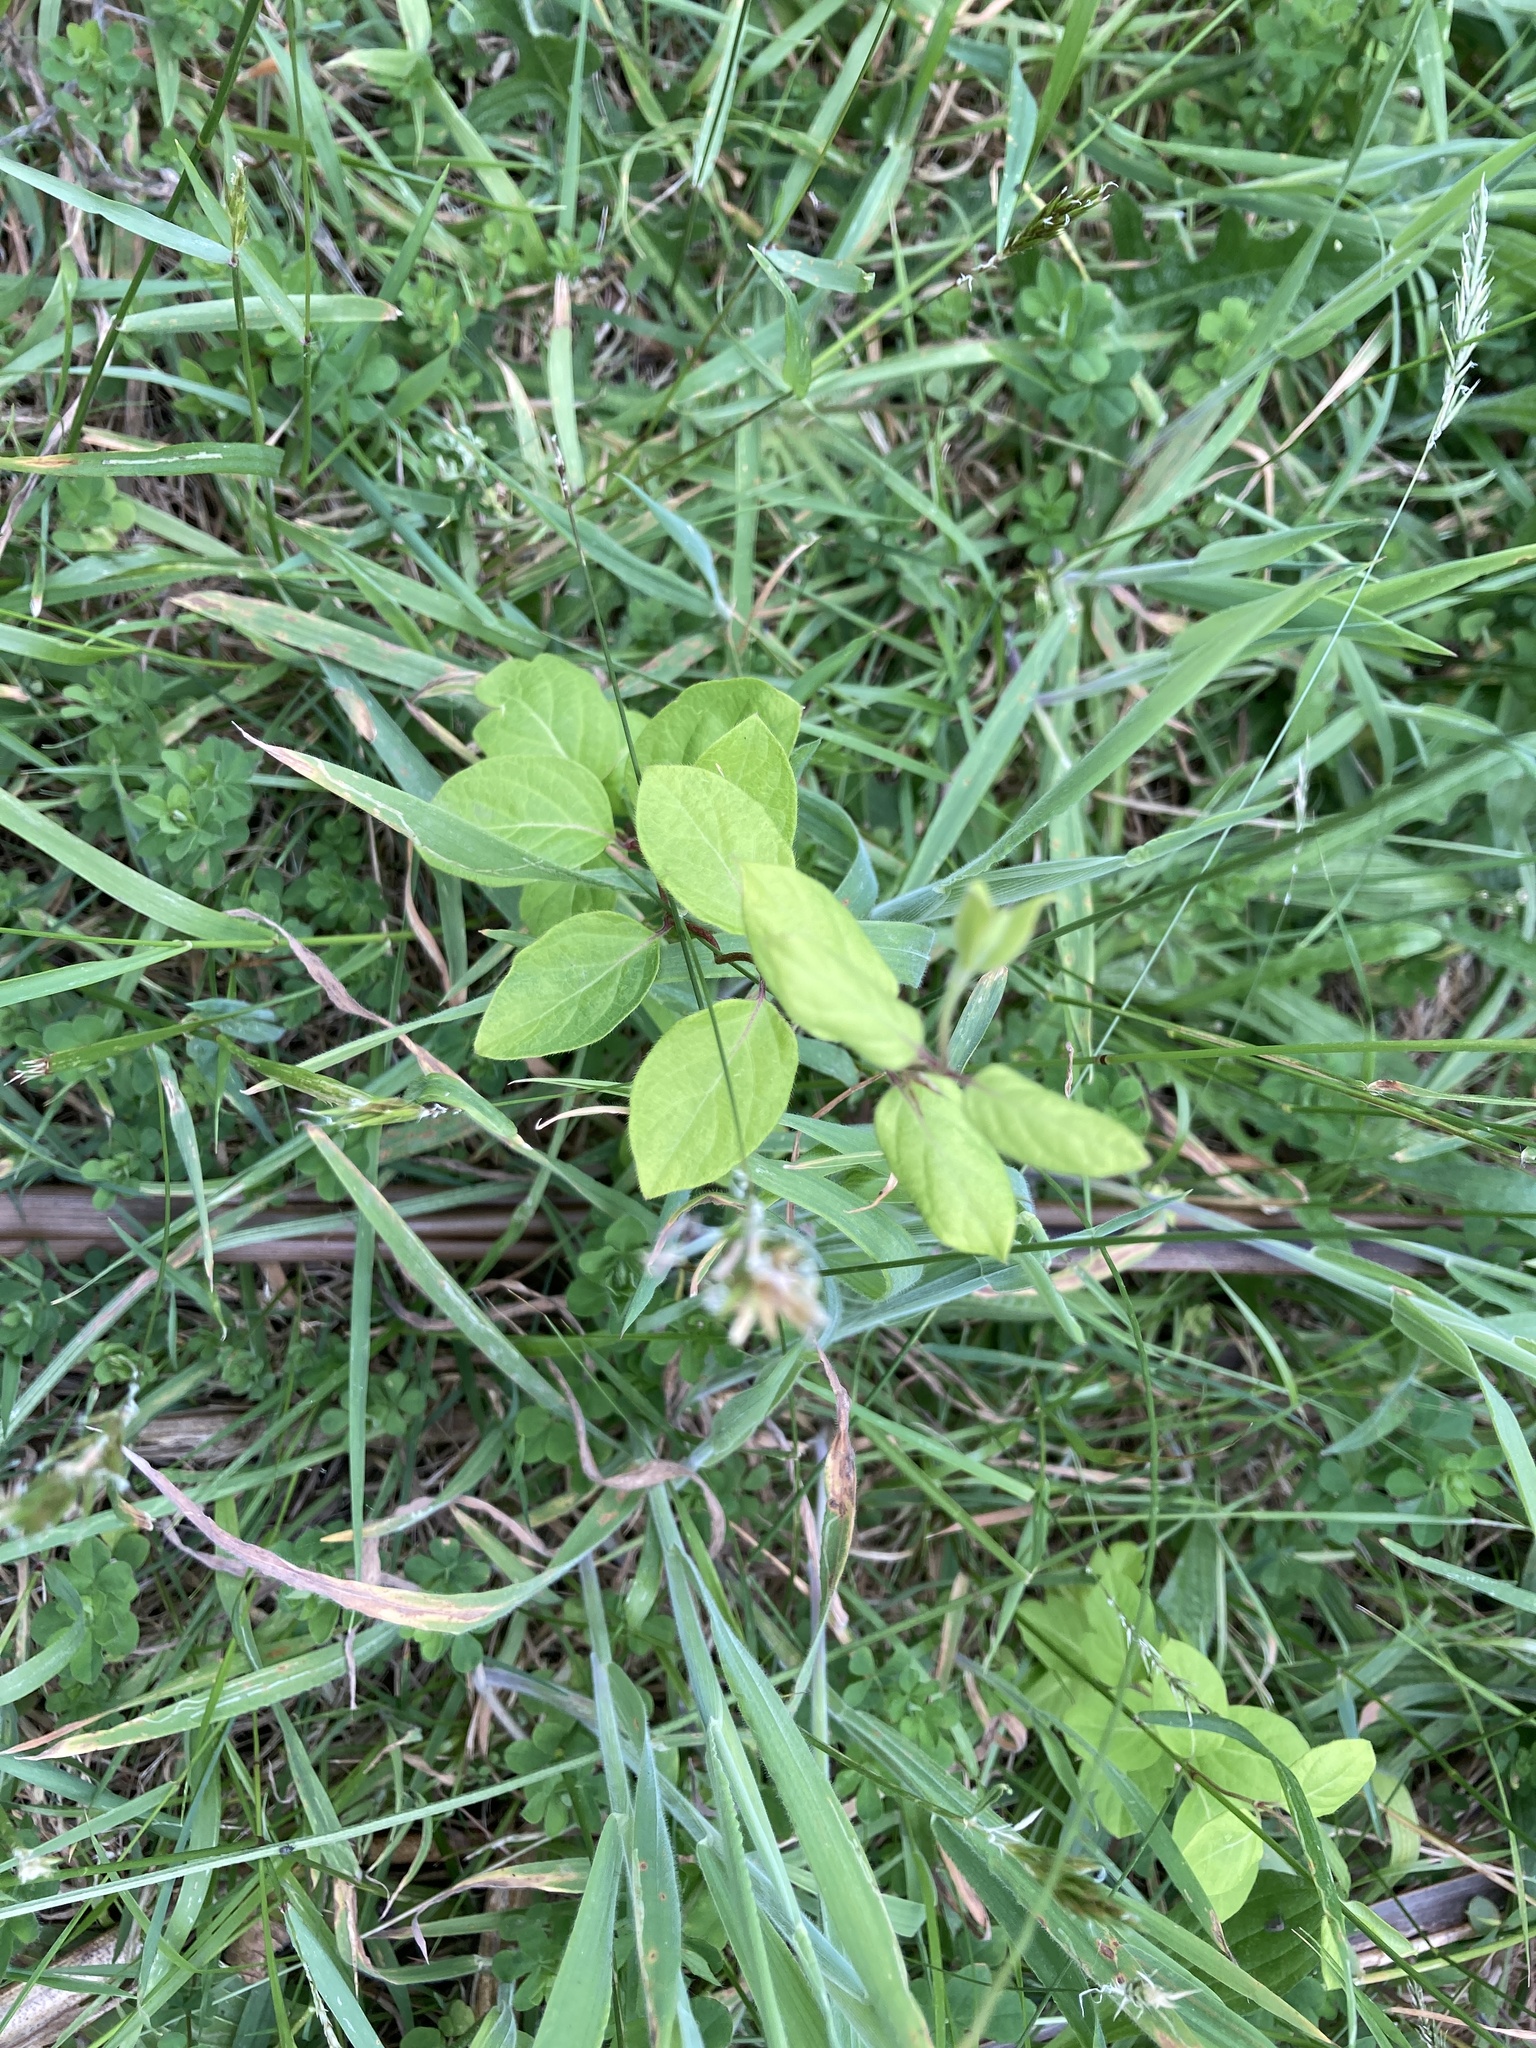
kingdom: Plantae
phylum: Tracheophyta
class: Magnoliopsida
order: Dipsacales
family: Caprifoliaceae
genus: Lonicera
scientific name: Lonicera japonica
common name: Japanese honeysuckle
